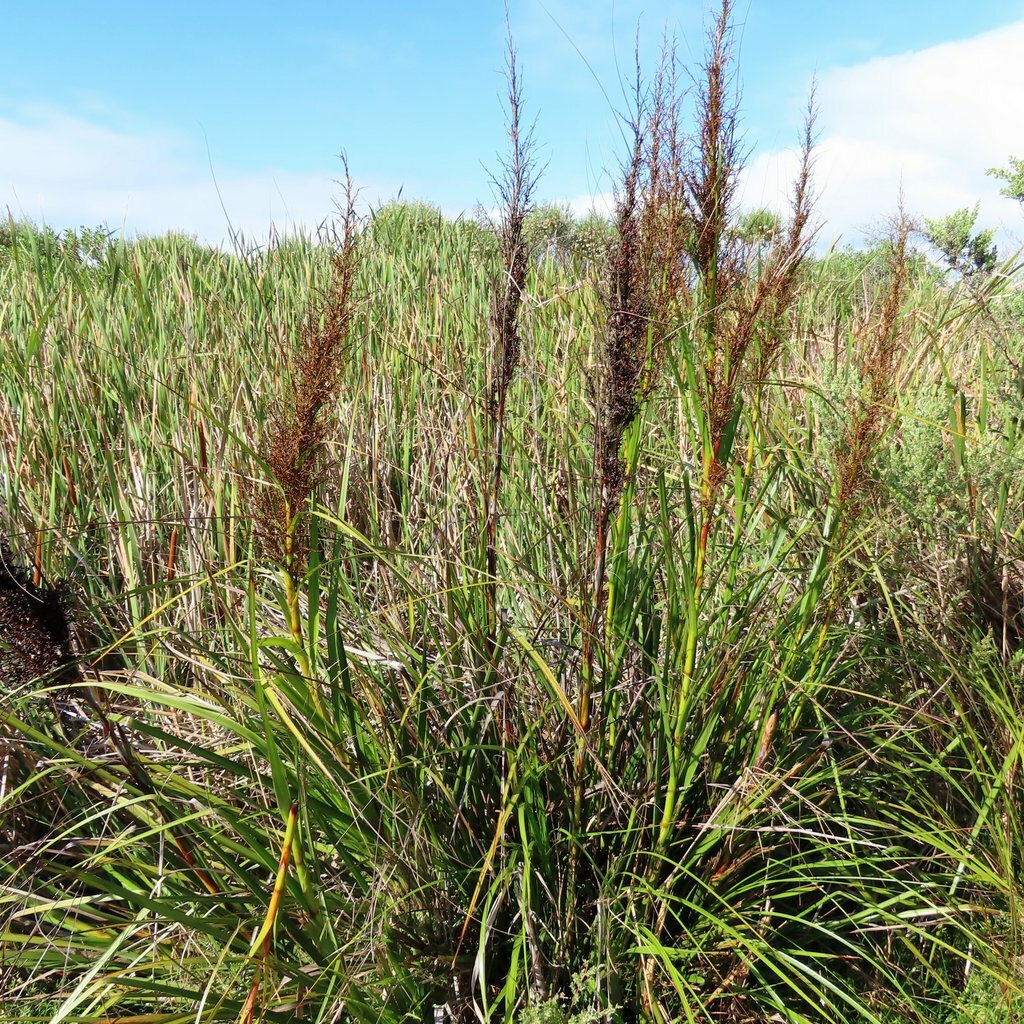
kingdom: Plantae
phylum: Tracheophyta
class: Liliopsida
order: Poales
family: Cyperaceae
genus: Gahnia
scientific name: Gahnia sieberiana
